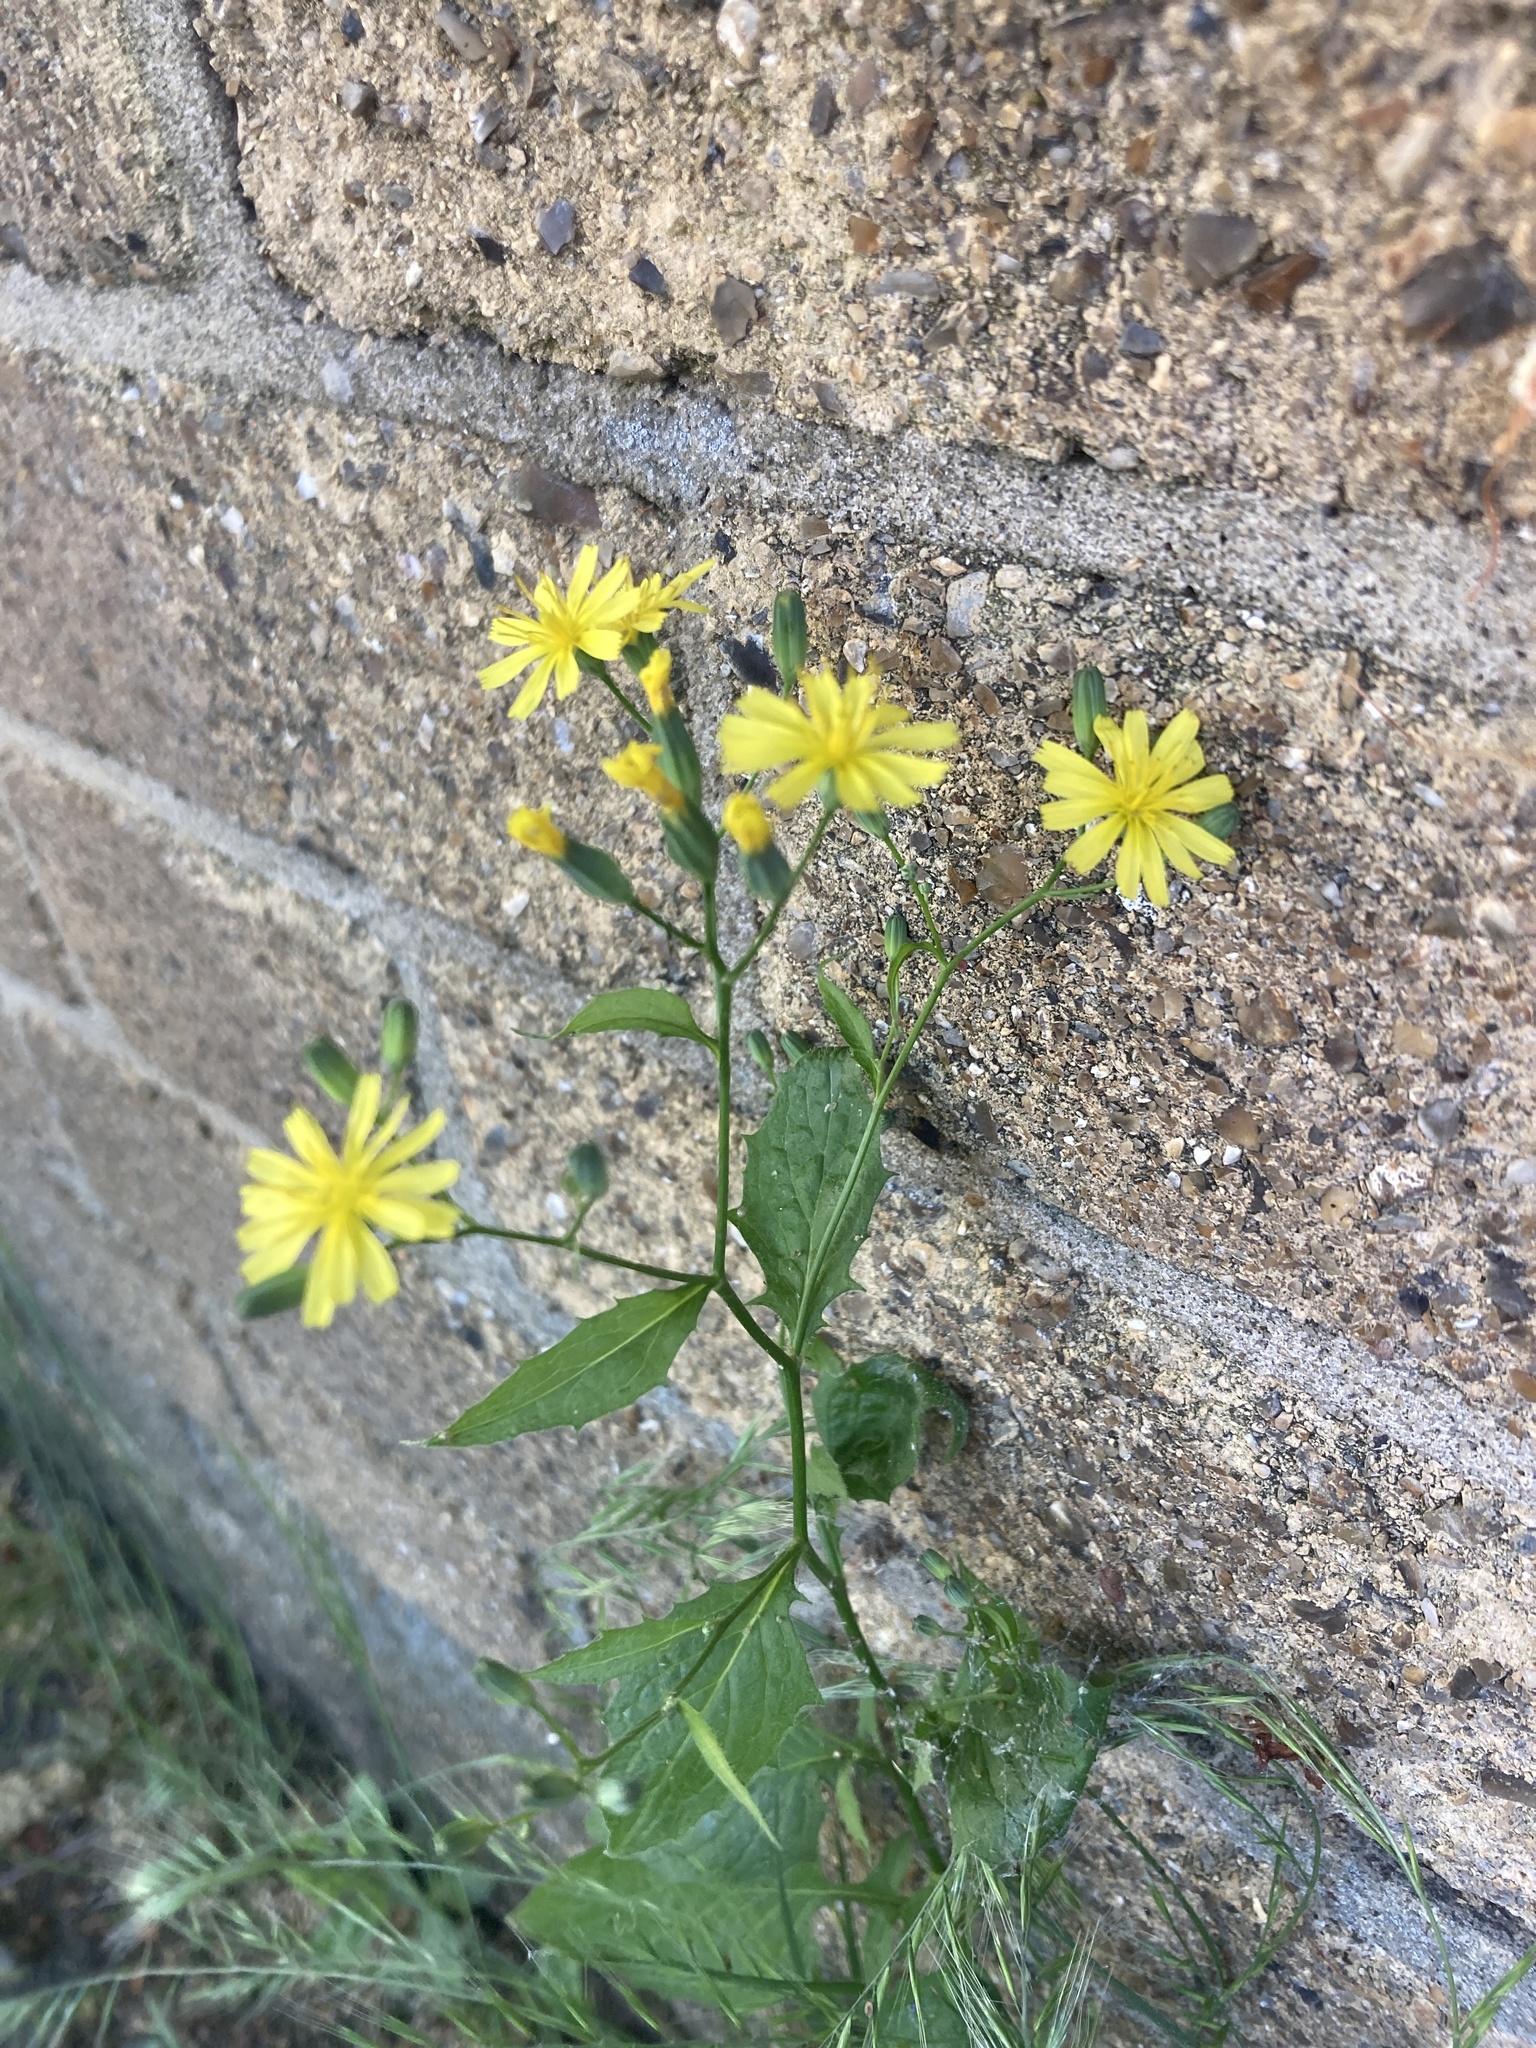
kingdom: Plantae
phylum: Tracheophyta
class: Magnoliopsida
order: Asterales
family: Asteraceae
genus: Lapsana
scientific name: Lapsana communis
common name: Nipplewort
